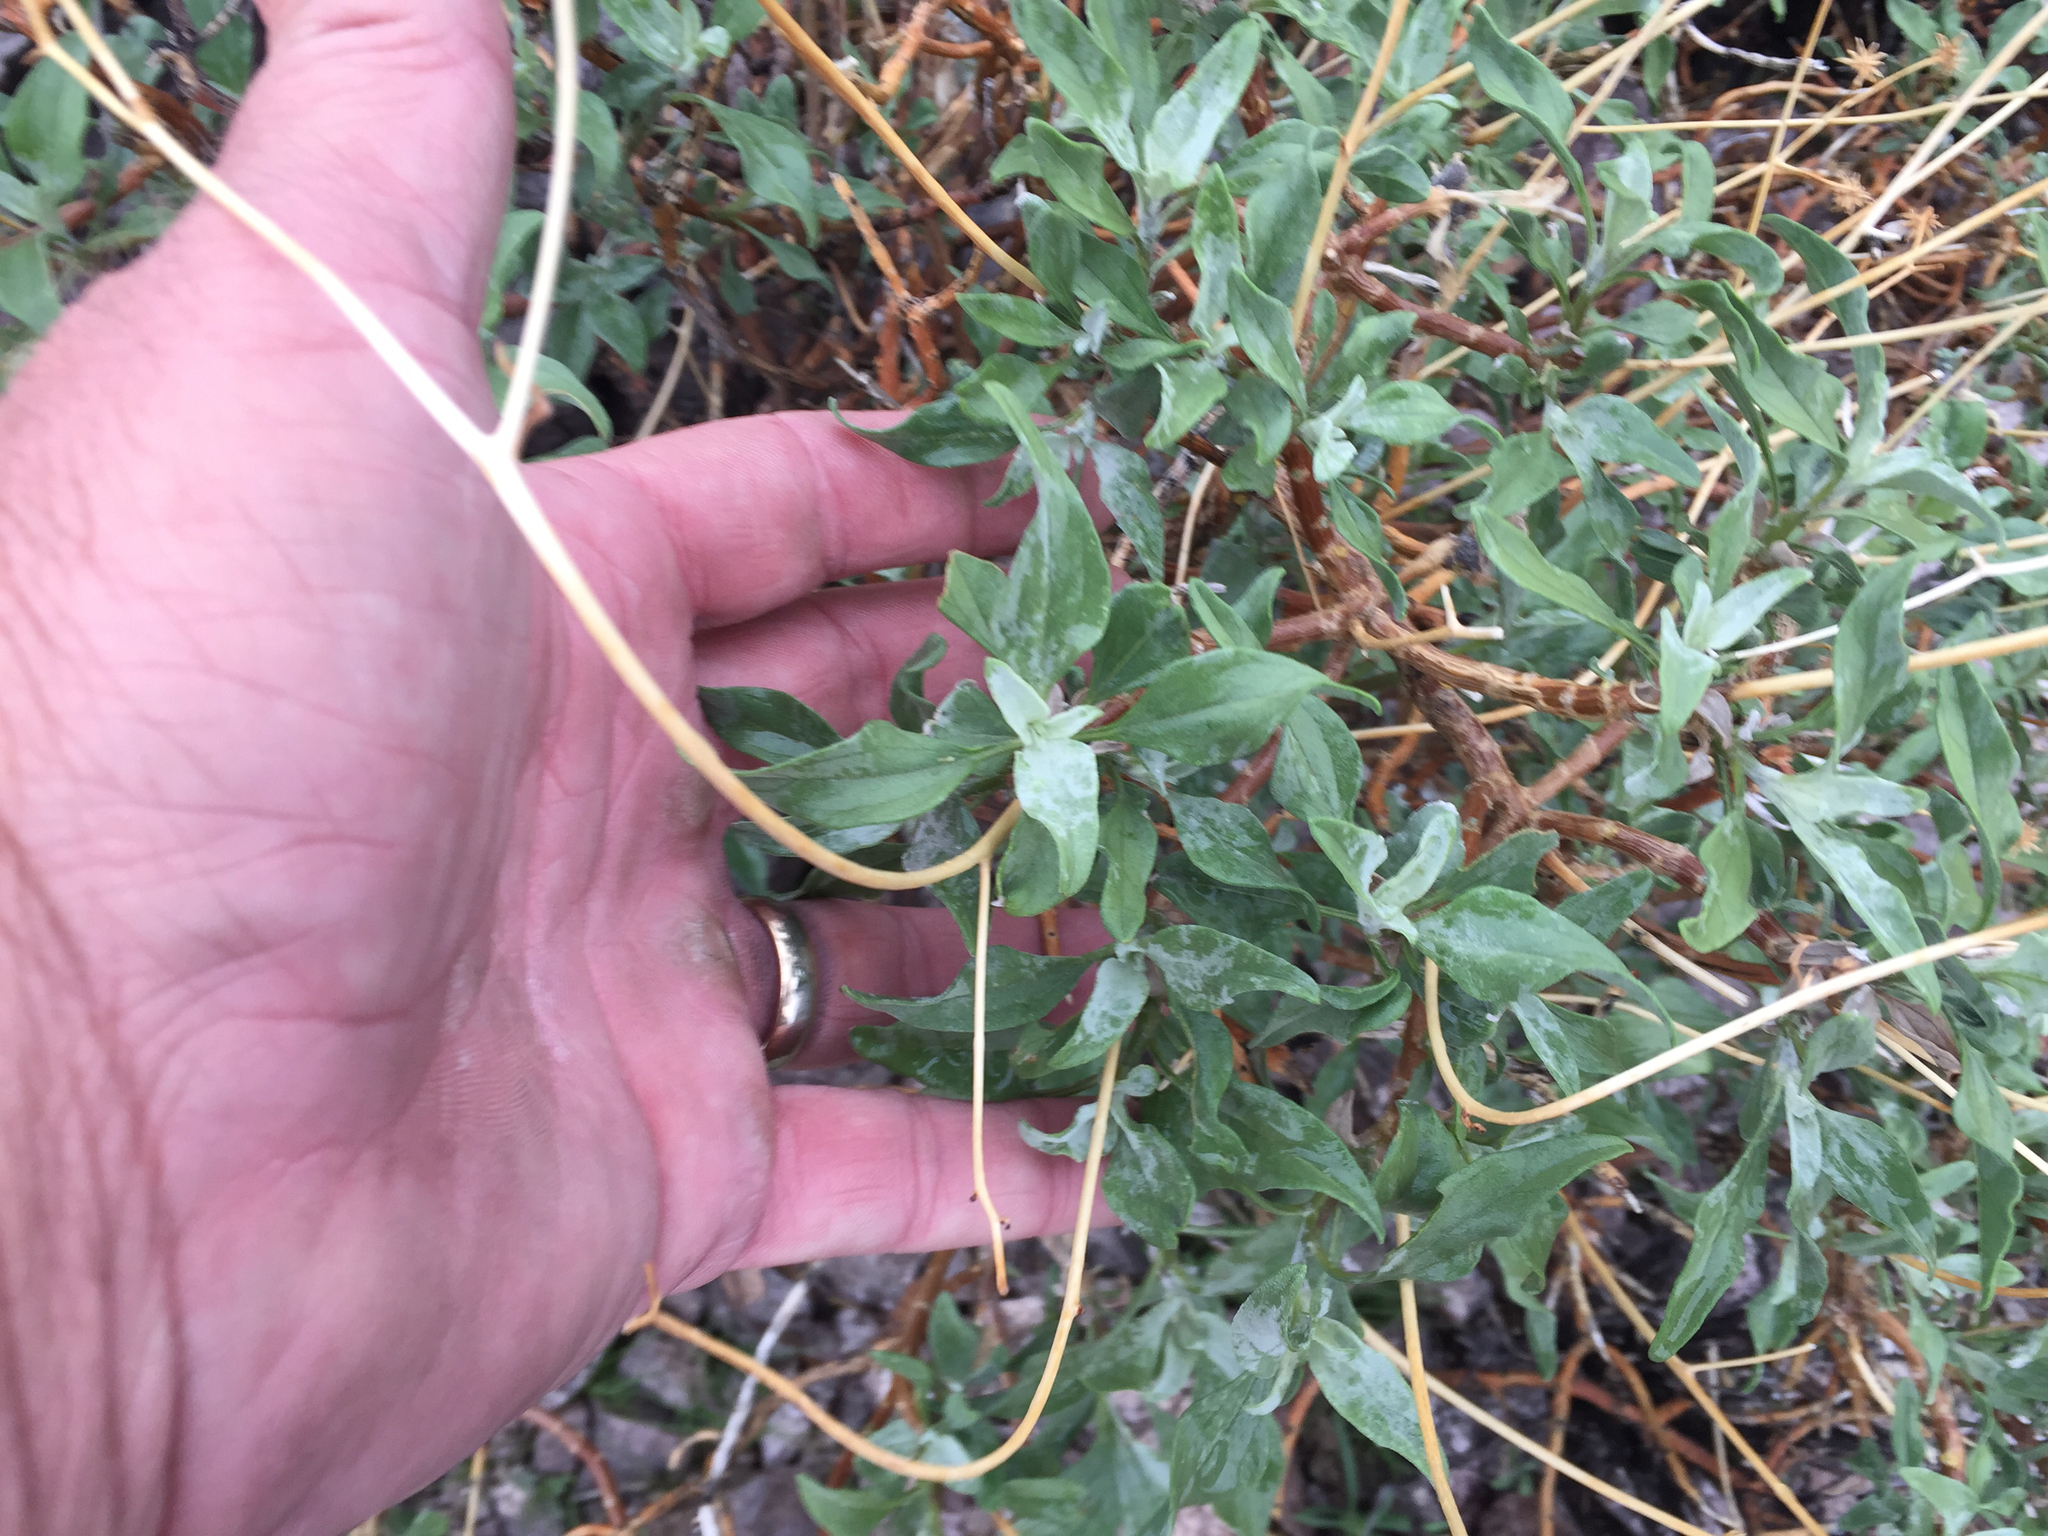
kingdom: Plantae
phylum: Tracheophyta
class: Magnoliopsida
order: Asterales
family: Asteraceae
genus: Encelia
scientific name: Encelia farinosa
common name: Brittlebush
